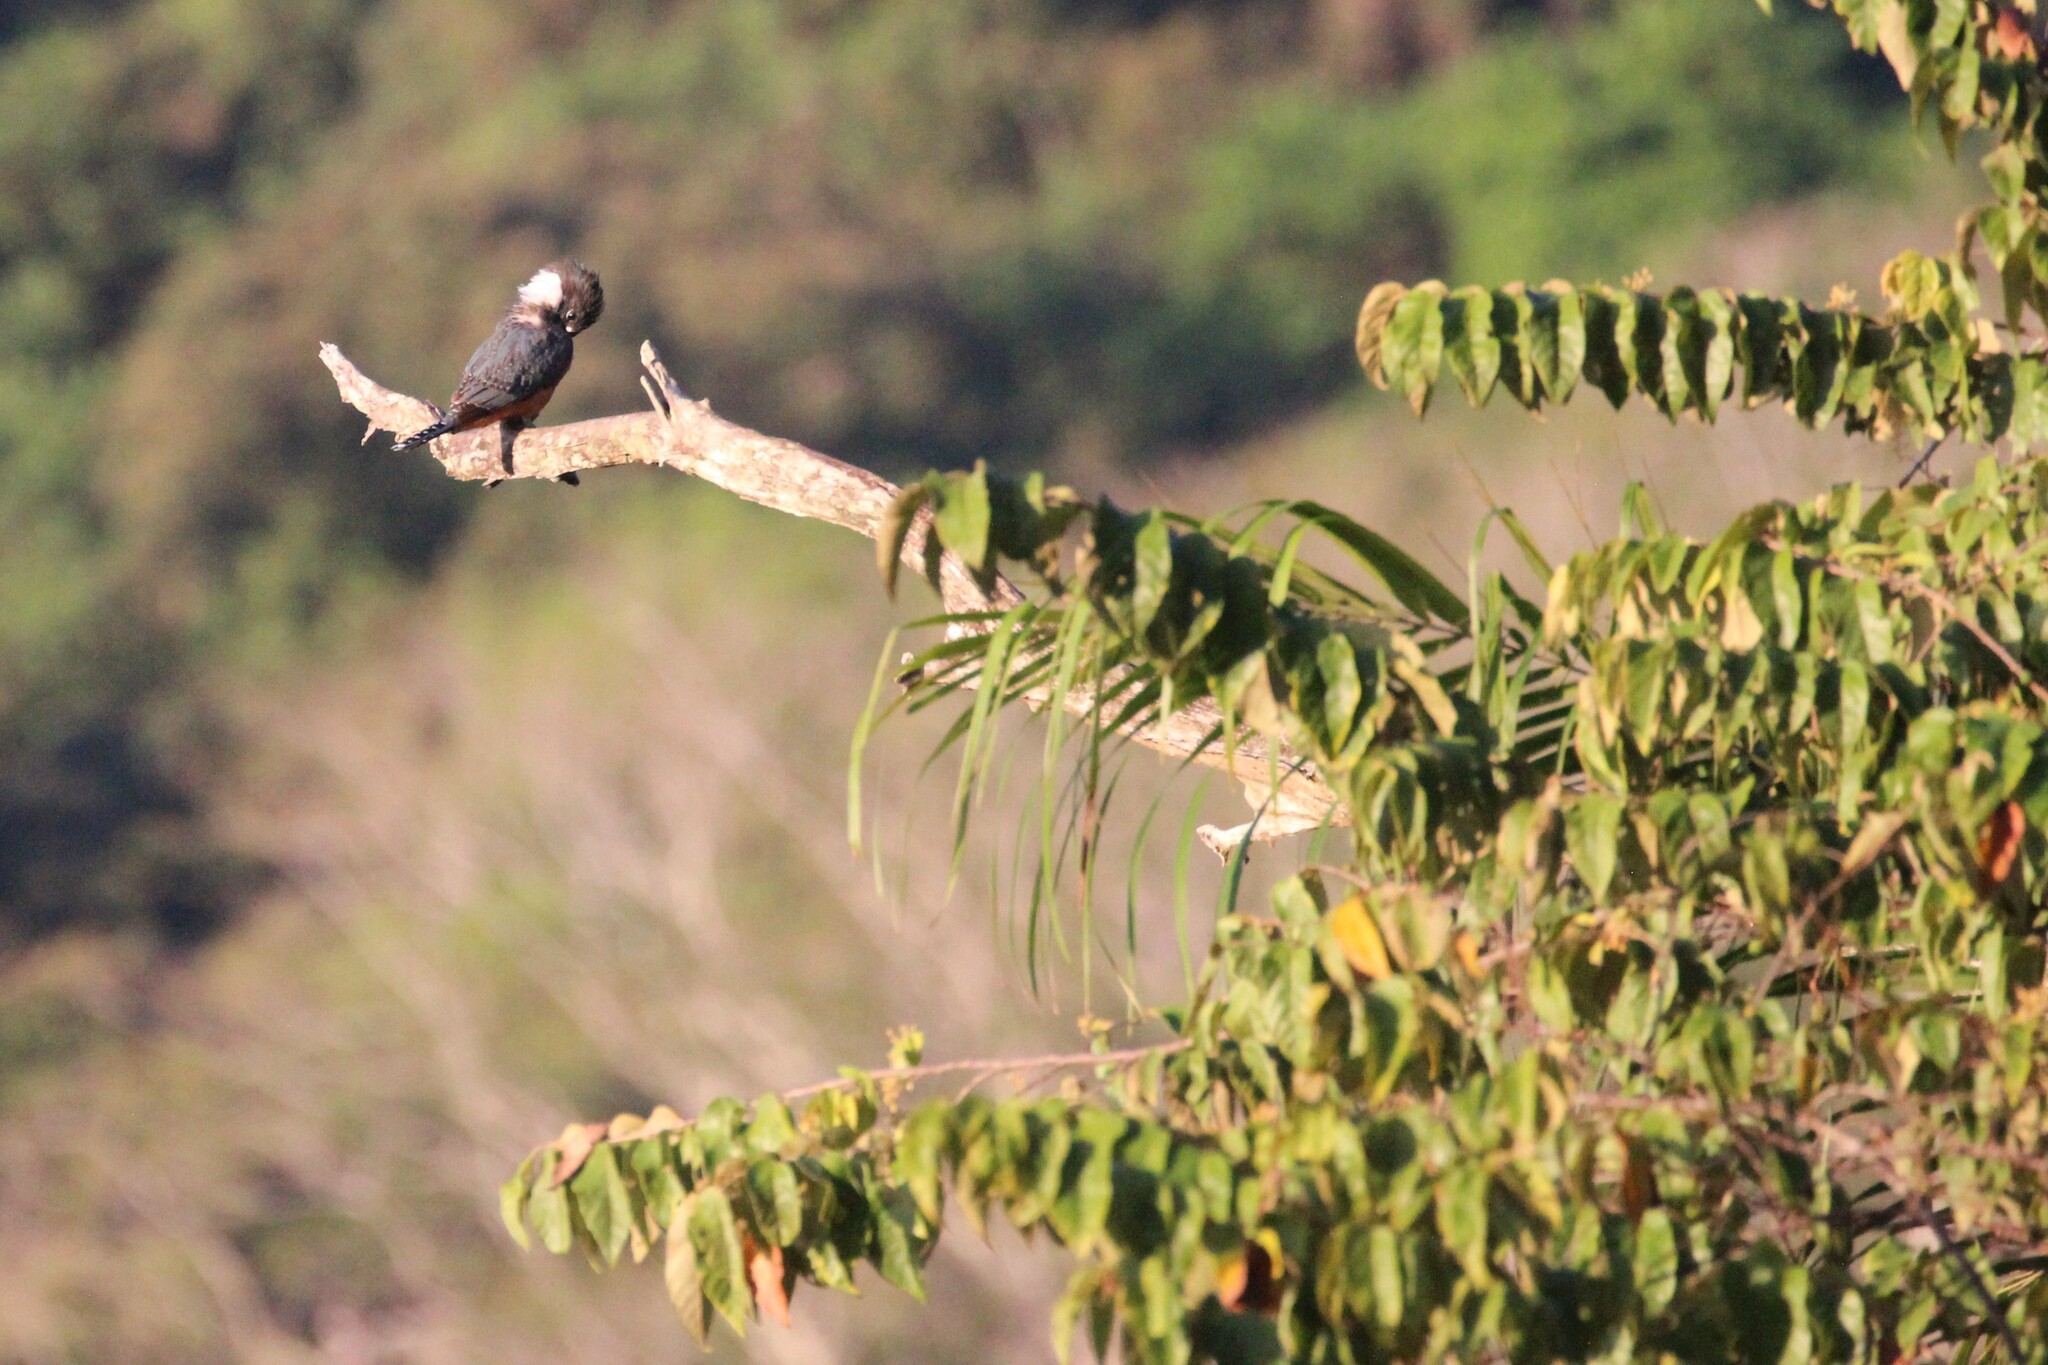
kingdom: Animalia
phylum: Chordata
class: Aves
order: Coraciiformes
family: Alcedinidae
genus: Megaceryle
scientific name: Megaceryle torquata
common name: Ringed kingfisher
